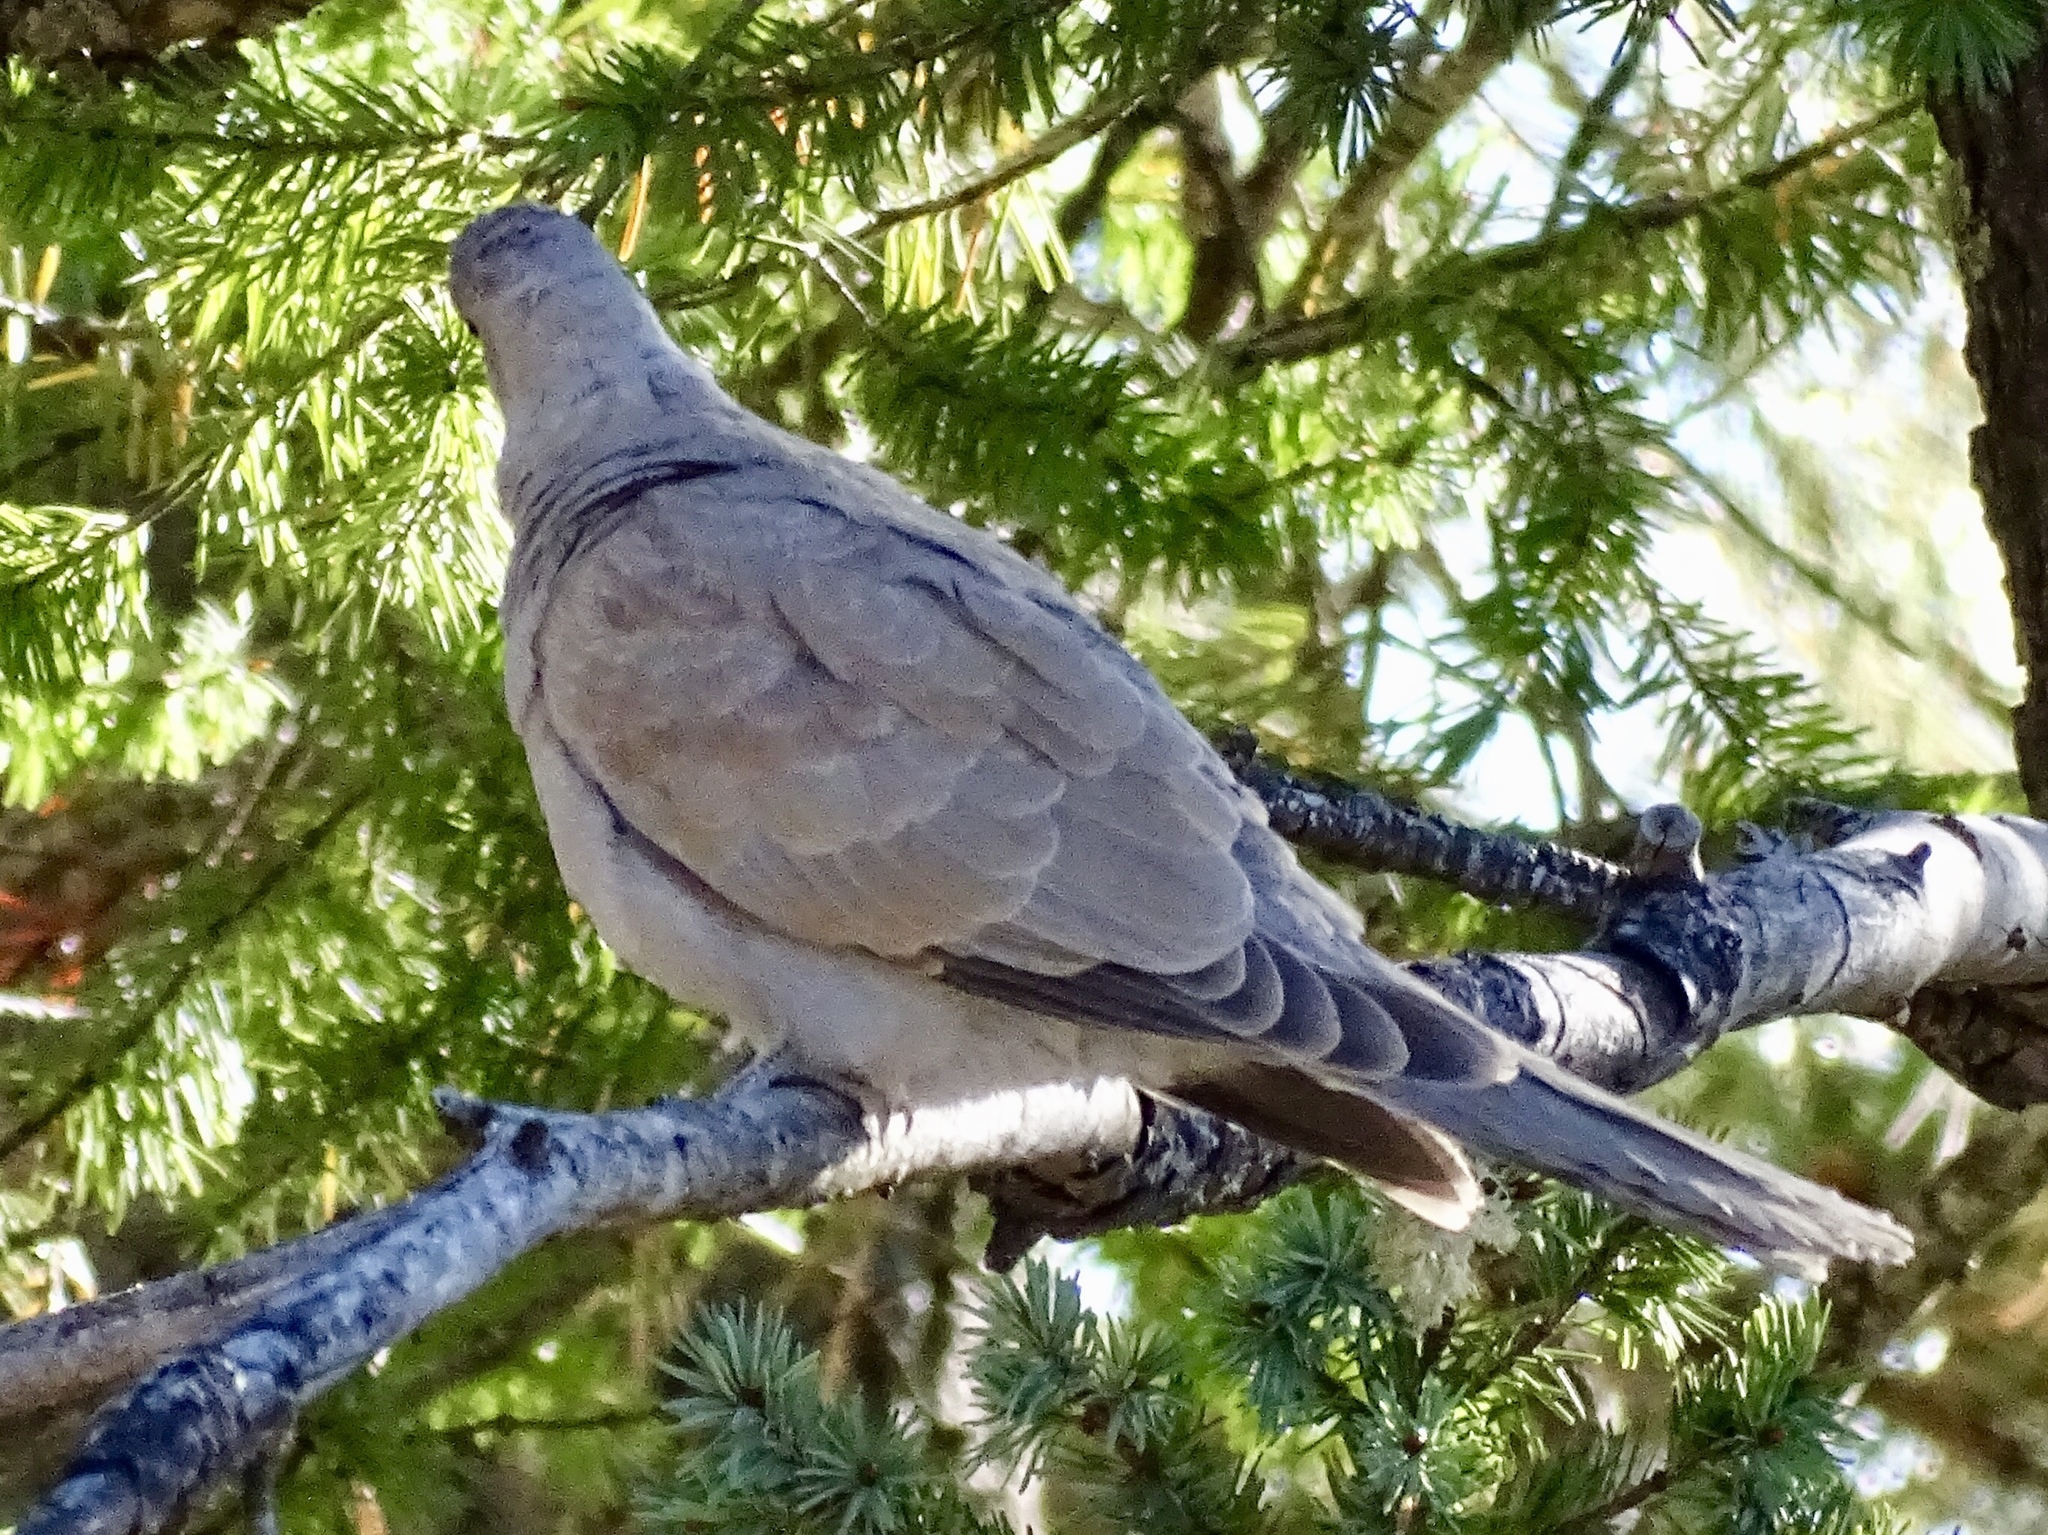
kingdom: Animalia
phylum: Chordata
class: Aves
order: Columbiformes
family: Columbidae
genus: Streptopelia
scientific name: Streptopelia decaocto
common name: Eurasian collared dove
